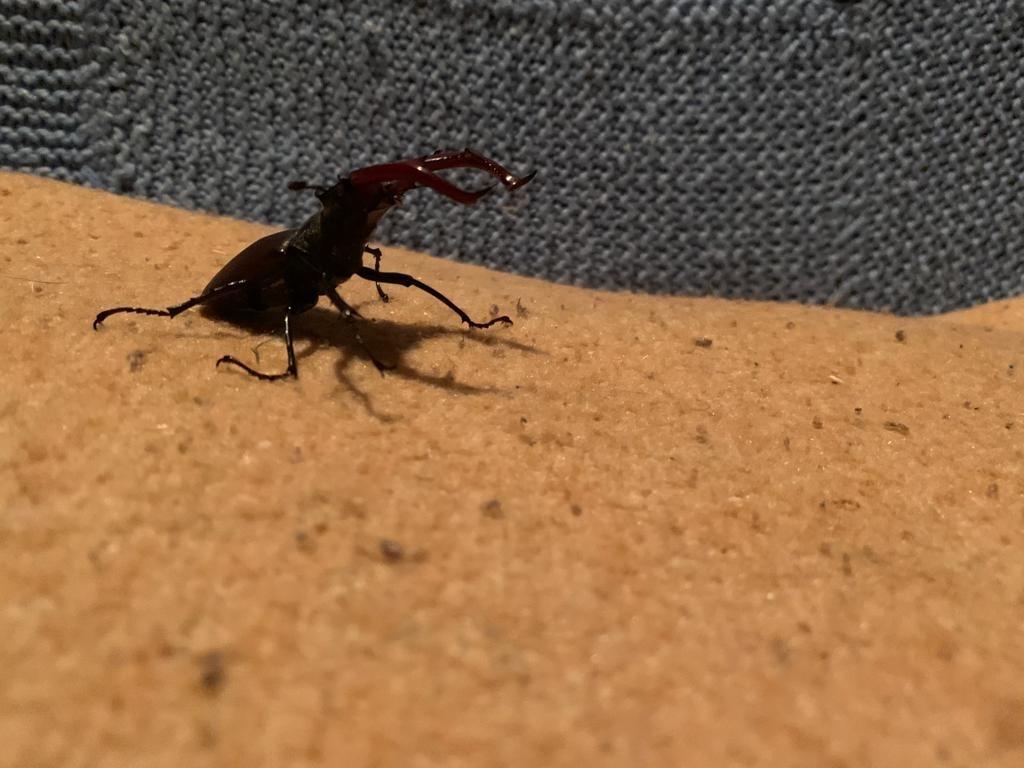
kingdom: Animalia
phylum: Arthropoda
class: Insecta
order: Coleoptera
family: Lucanidae
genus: Lucanus
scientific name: Lucanus cervus
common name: Stag beetle
